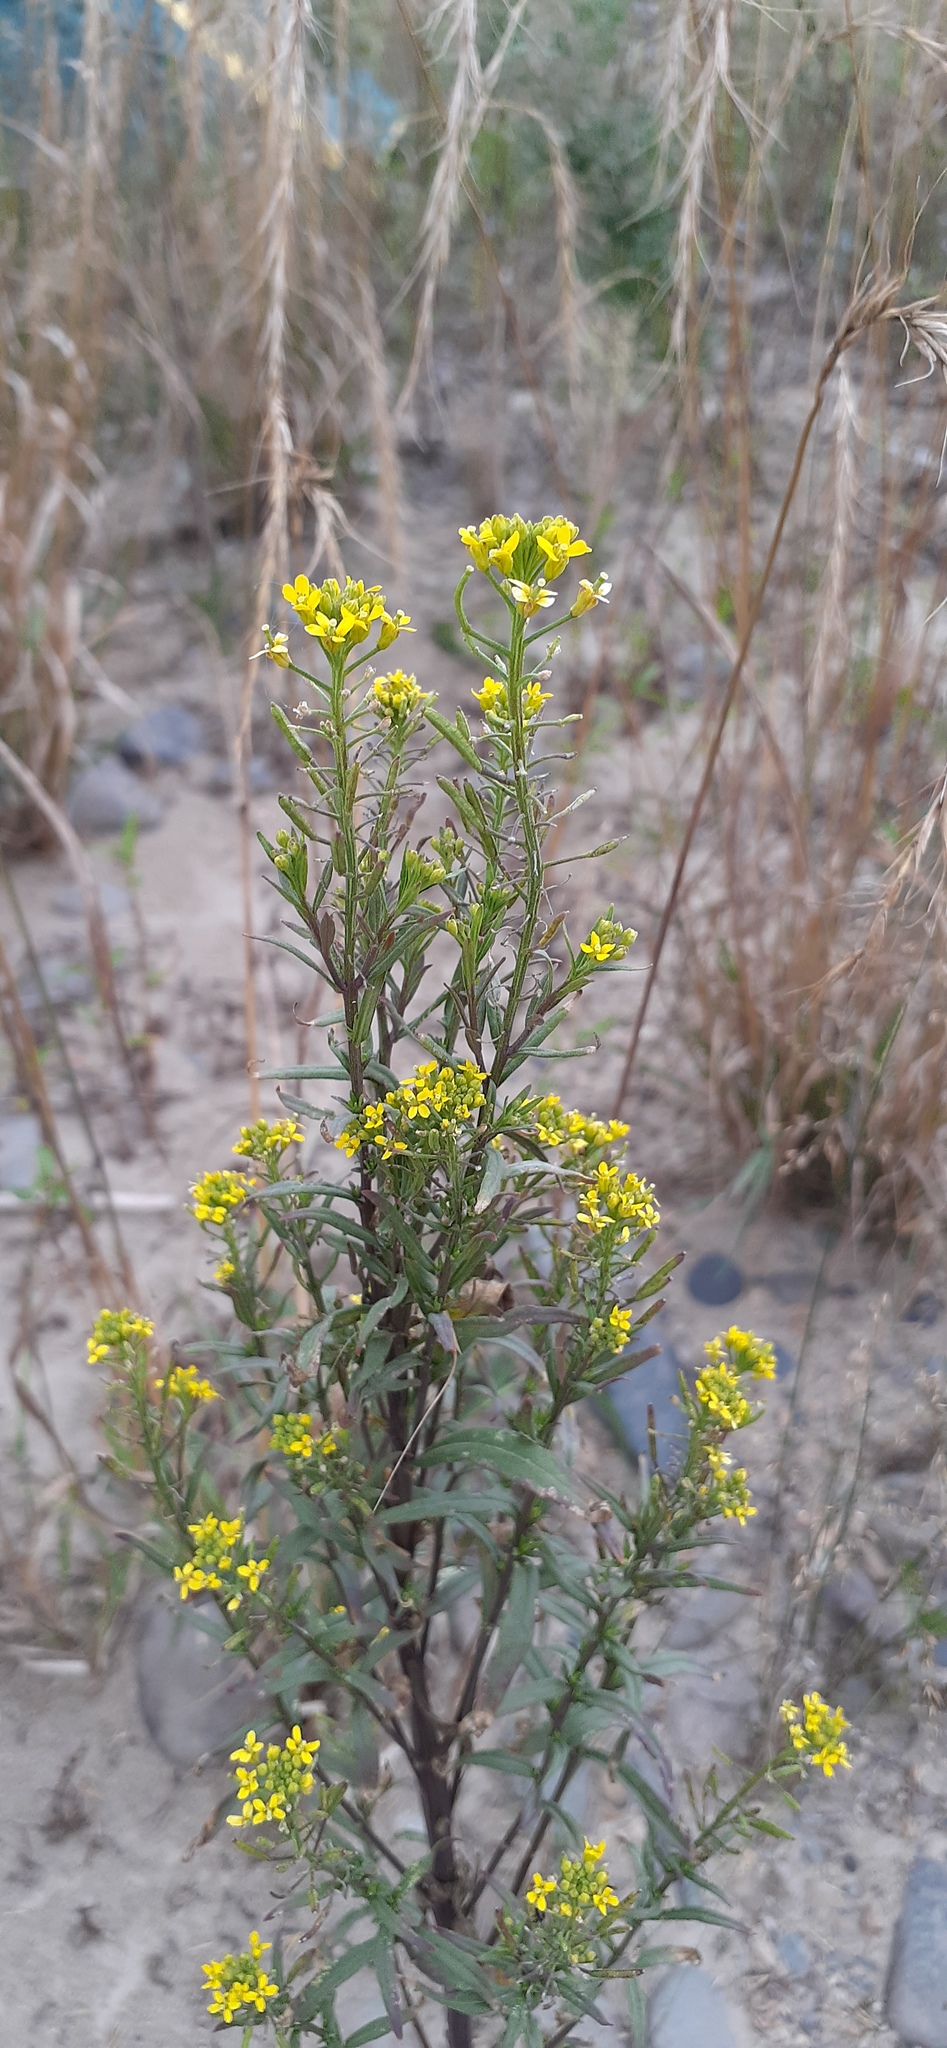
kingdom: Plantae
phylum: Tracheophyta
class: Magnoliopsida
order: Brassicales
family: Brassicaceae
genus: Erysimum
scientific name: Erysimum cheiranthoides
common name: Treacle mustard
